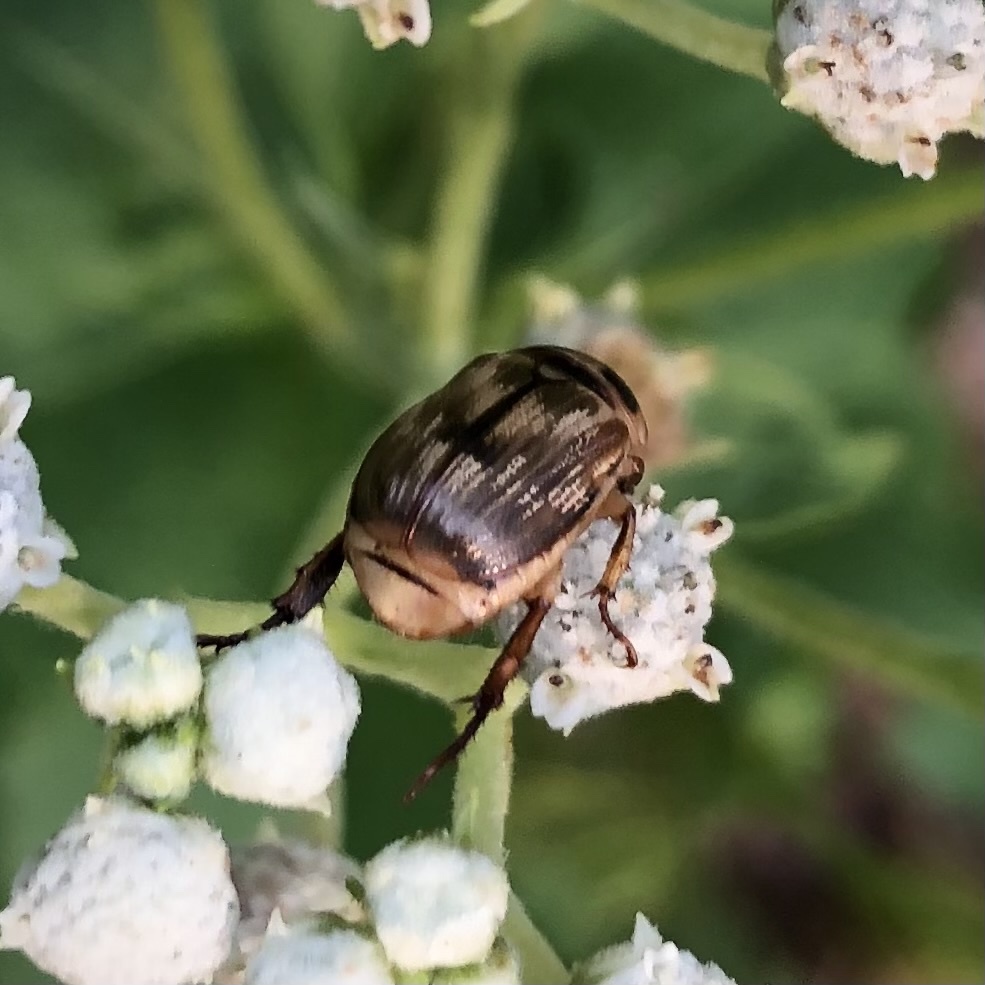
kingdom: Animalia
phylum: Arthropoda
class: Insecta
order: Coleoptera
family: Scarabaeidae
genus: Exomala
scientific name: Exomala orientalis
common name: Oriental beetle
